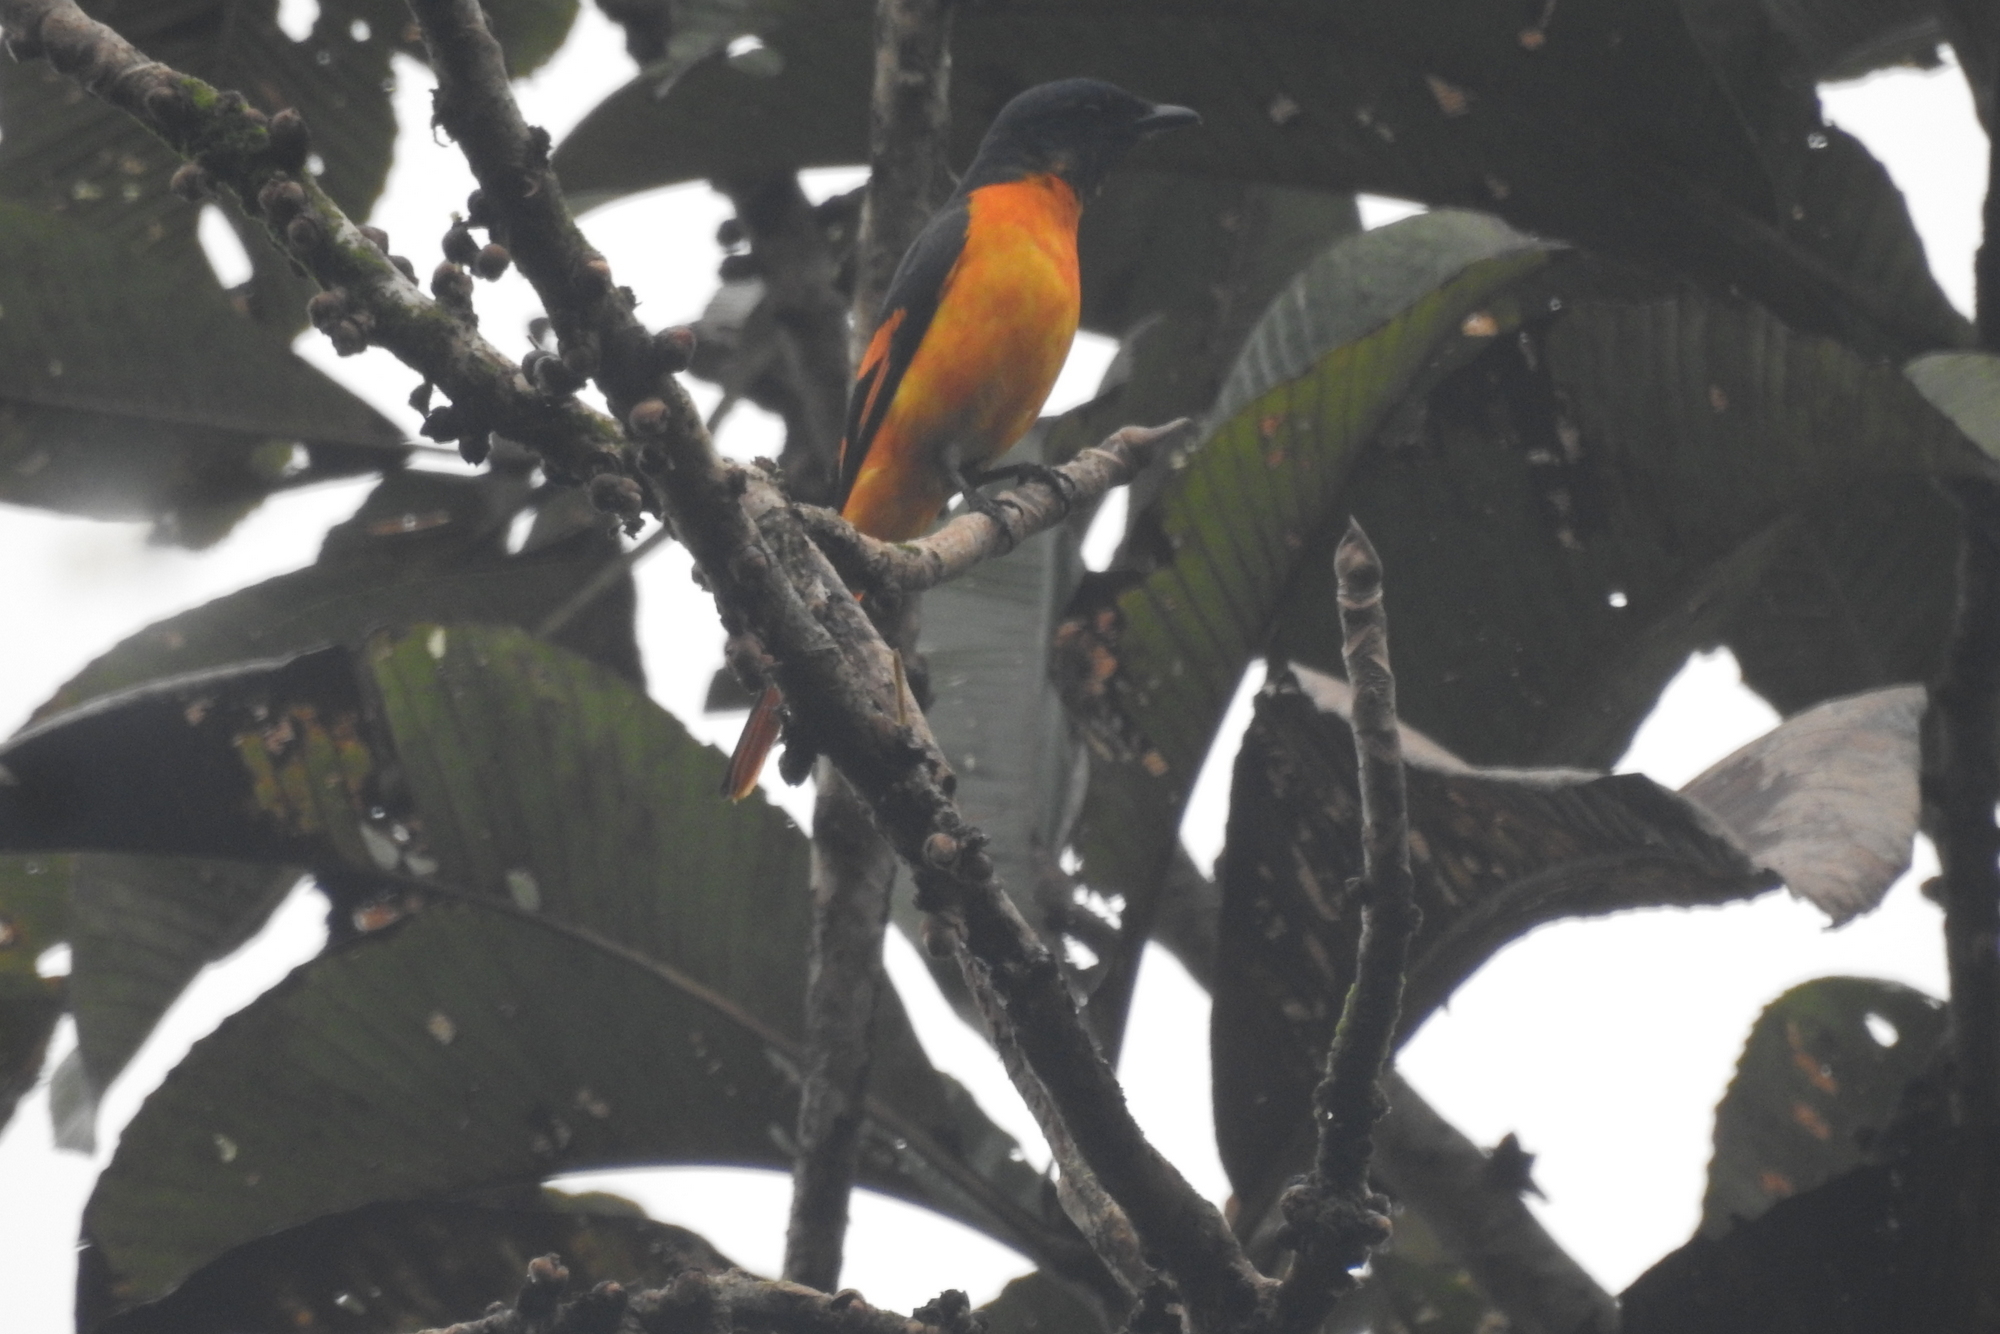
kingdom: Animalia
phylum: Chordata
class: Aves
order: Passeriformes
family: Campephagidae
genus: Pericrocotus
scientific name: Pericrocotus flammeus
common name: Orange minivet
